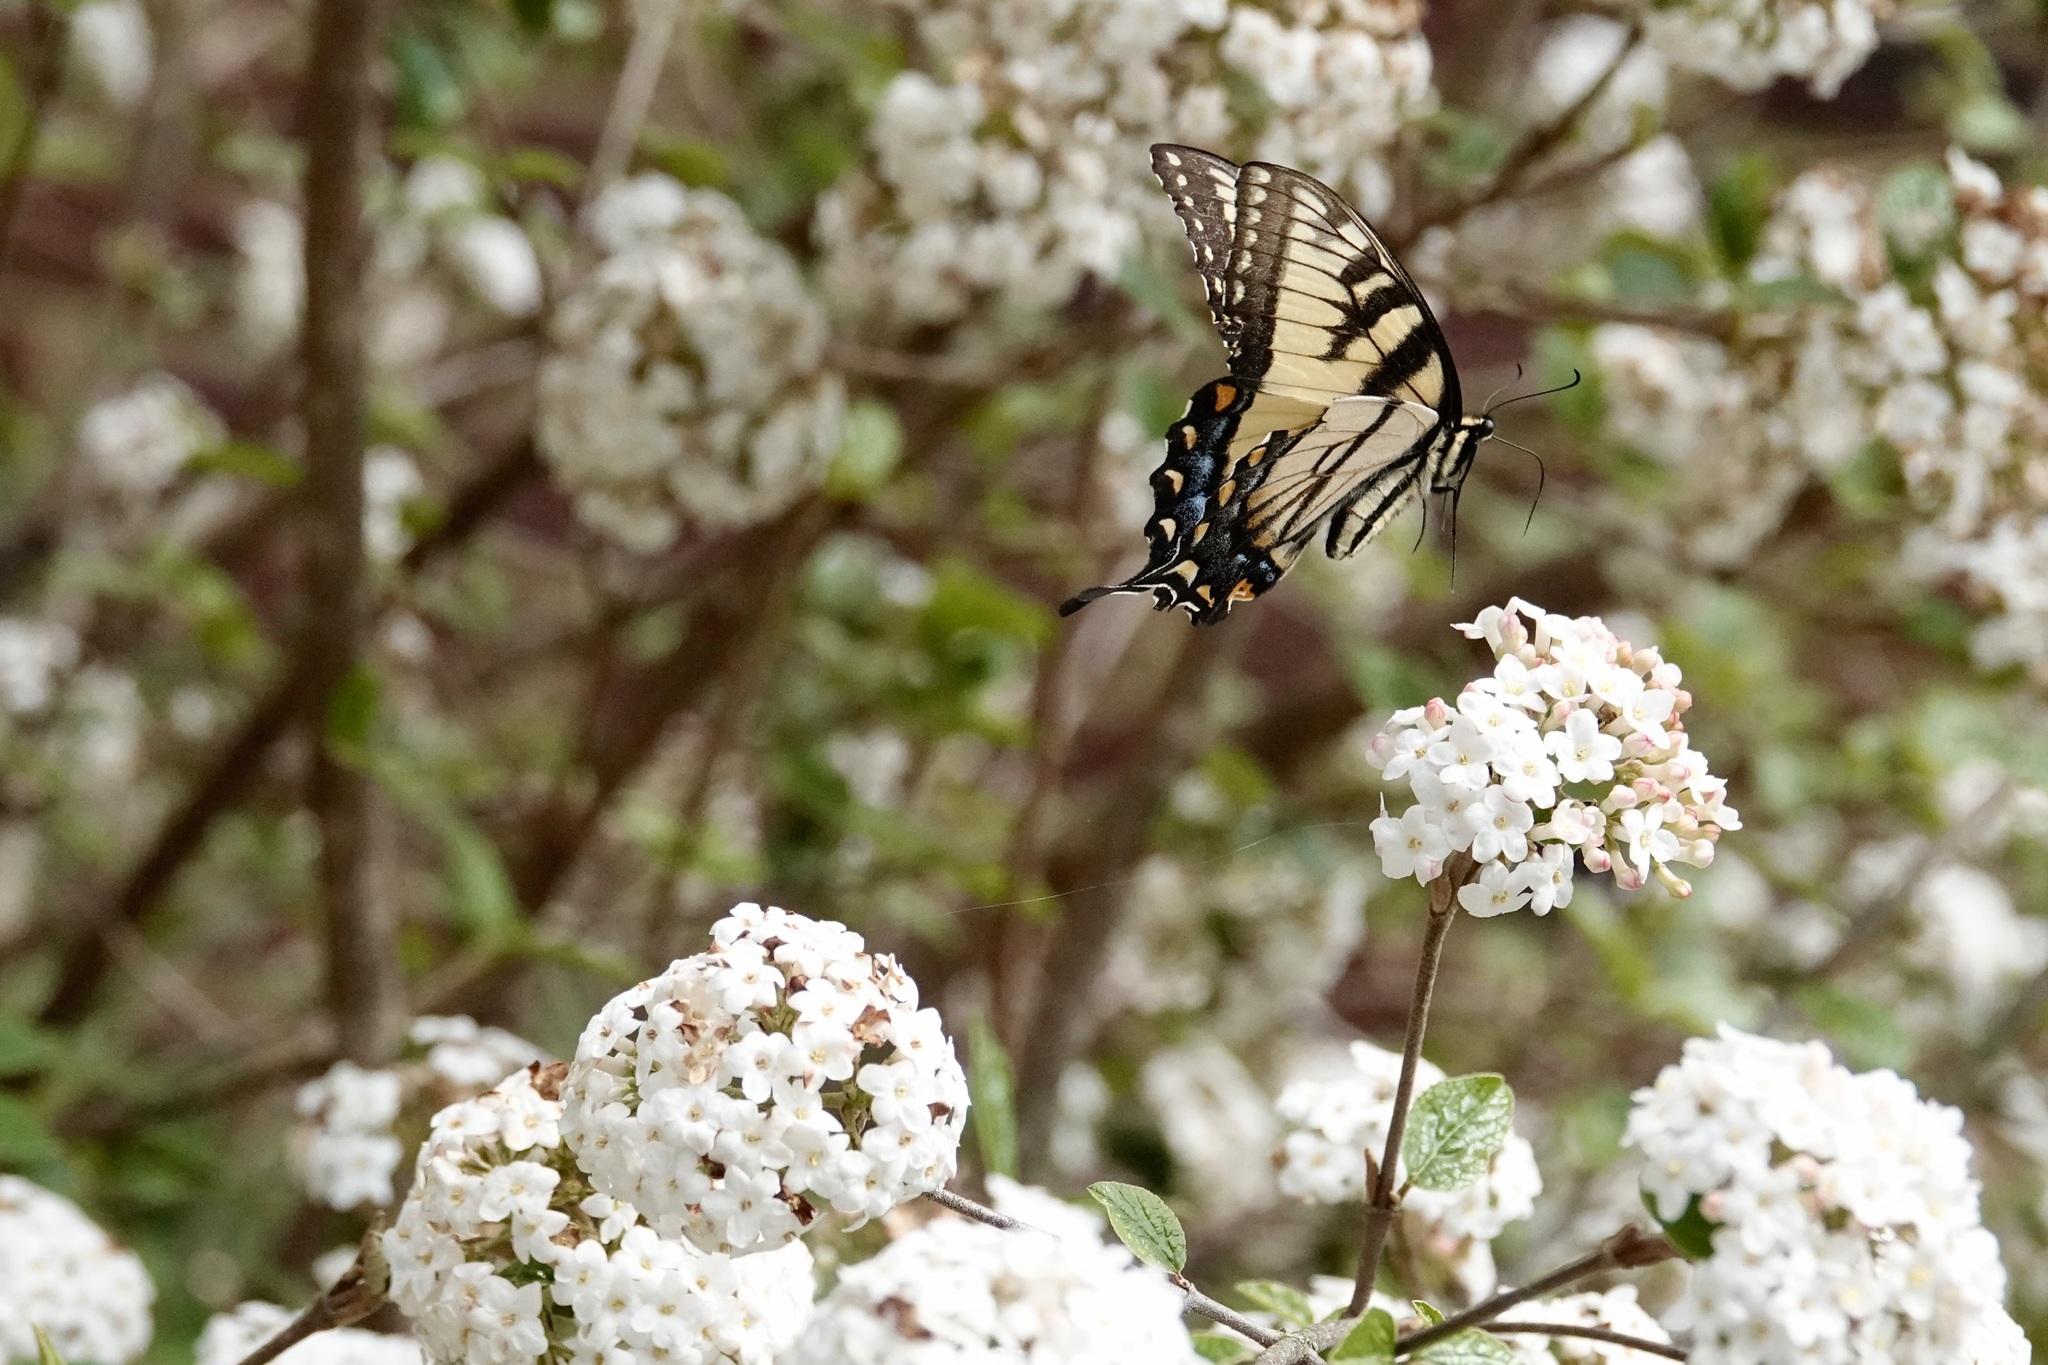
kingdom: Animalia
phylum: Arthropoda
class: Insecta
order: Lepidoptera
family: Papilionidae
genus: Papilio
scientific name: Papilio glaucus
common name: Tiger swallowtail
